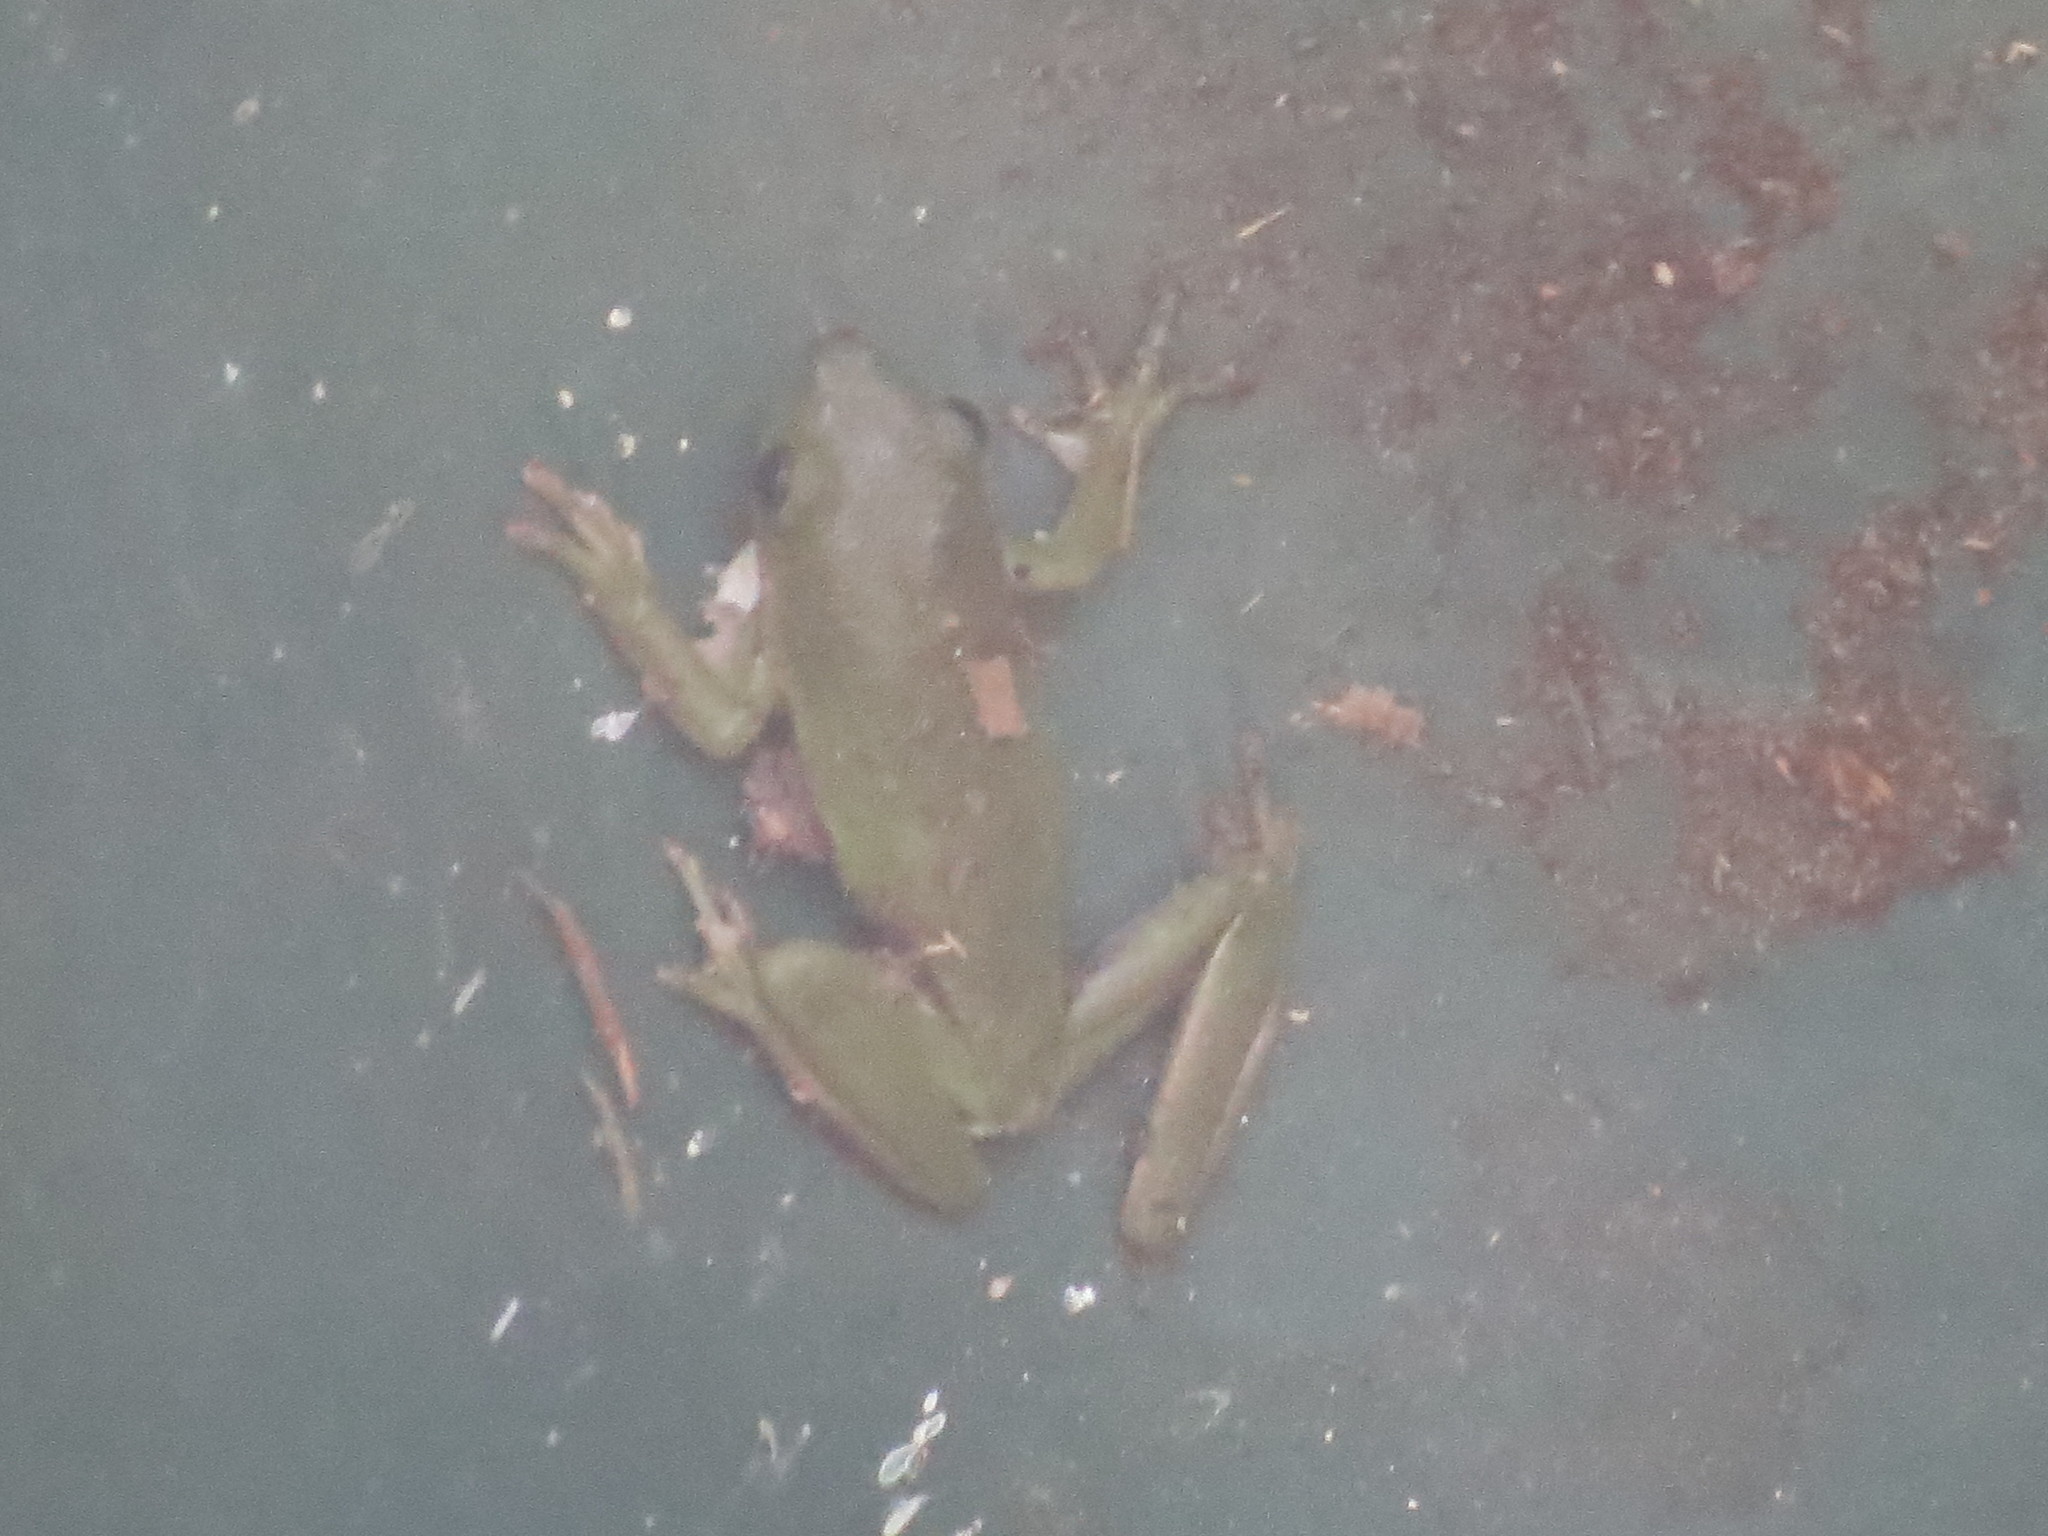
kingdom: Animalia
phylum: Chordata
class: Amphibia
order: Anura
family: Hylidae
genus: Dryophytes
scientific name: Dryophytes cinereus
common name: Green treefrog
